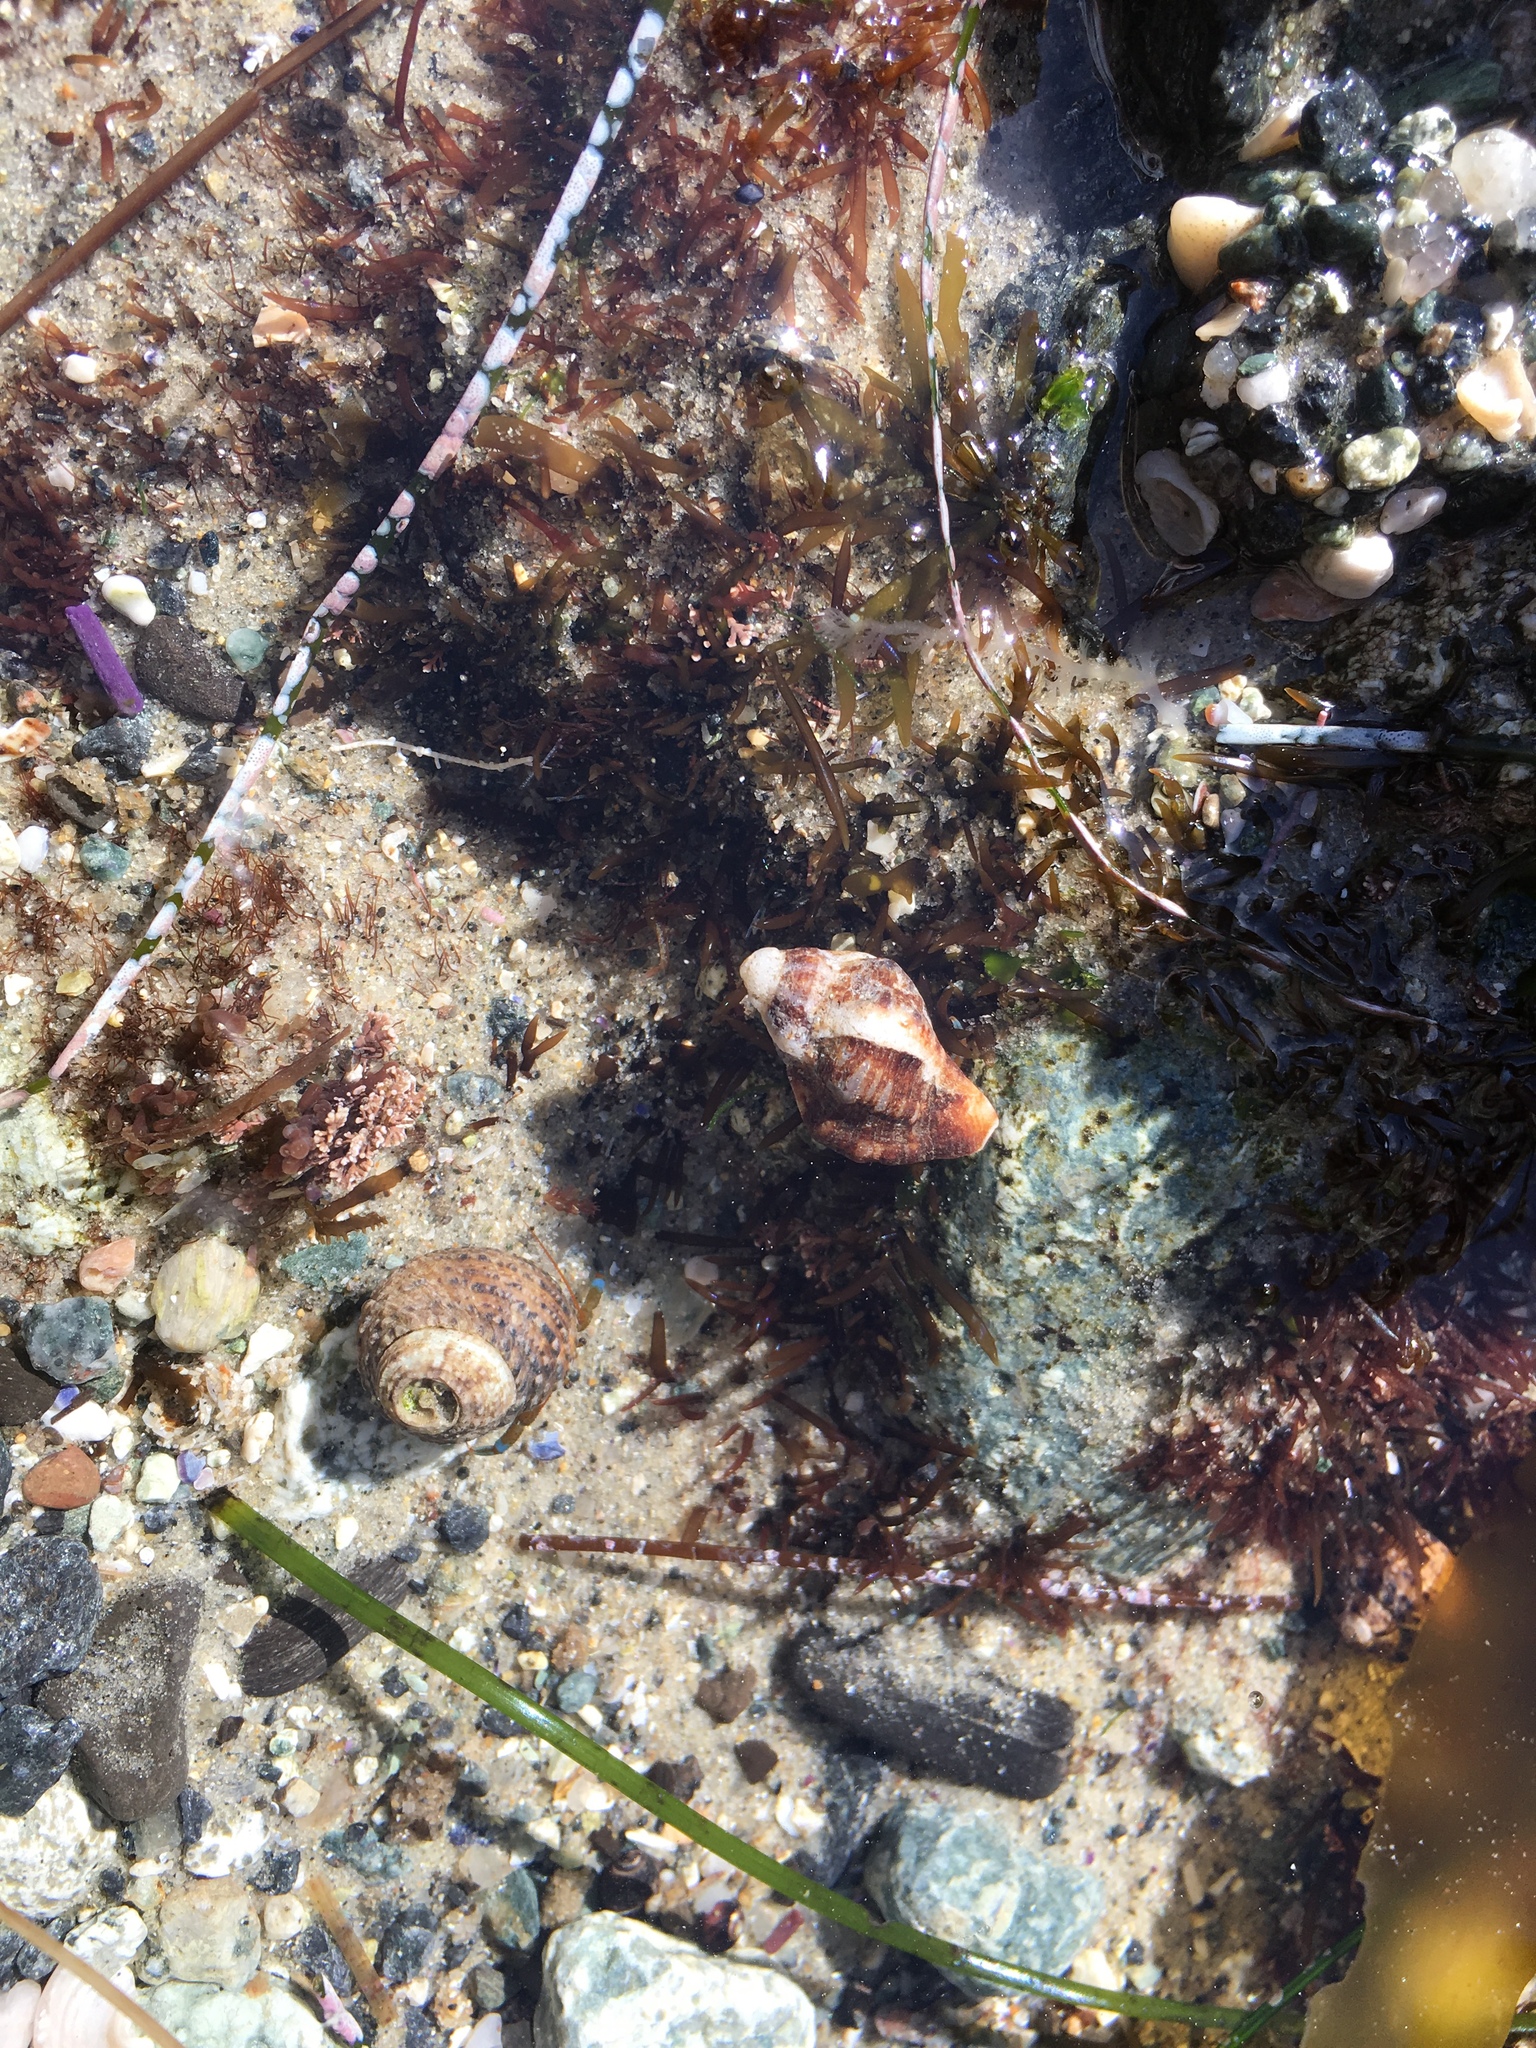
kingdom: Animalia
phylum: Arthropoda
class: Malacostraca
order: Decapoda
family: Paguridae
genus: Pagurus
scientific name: Pagurus samuelis
